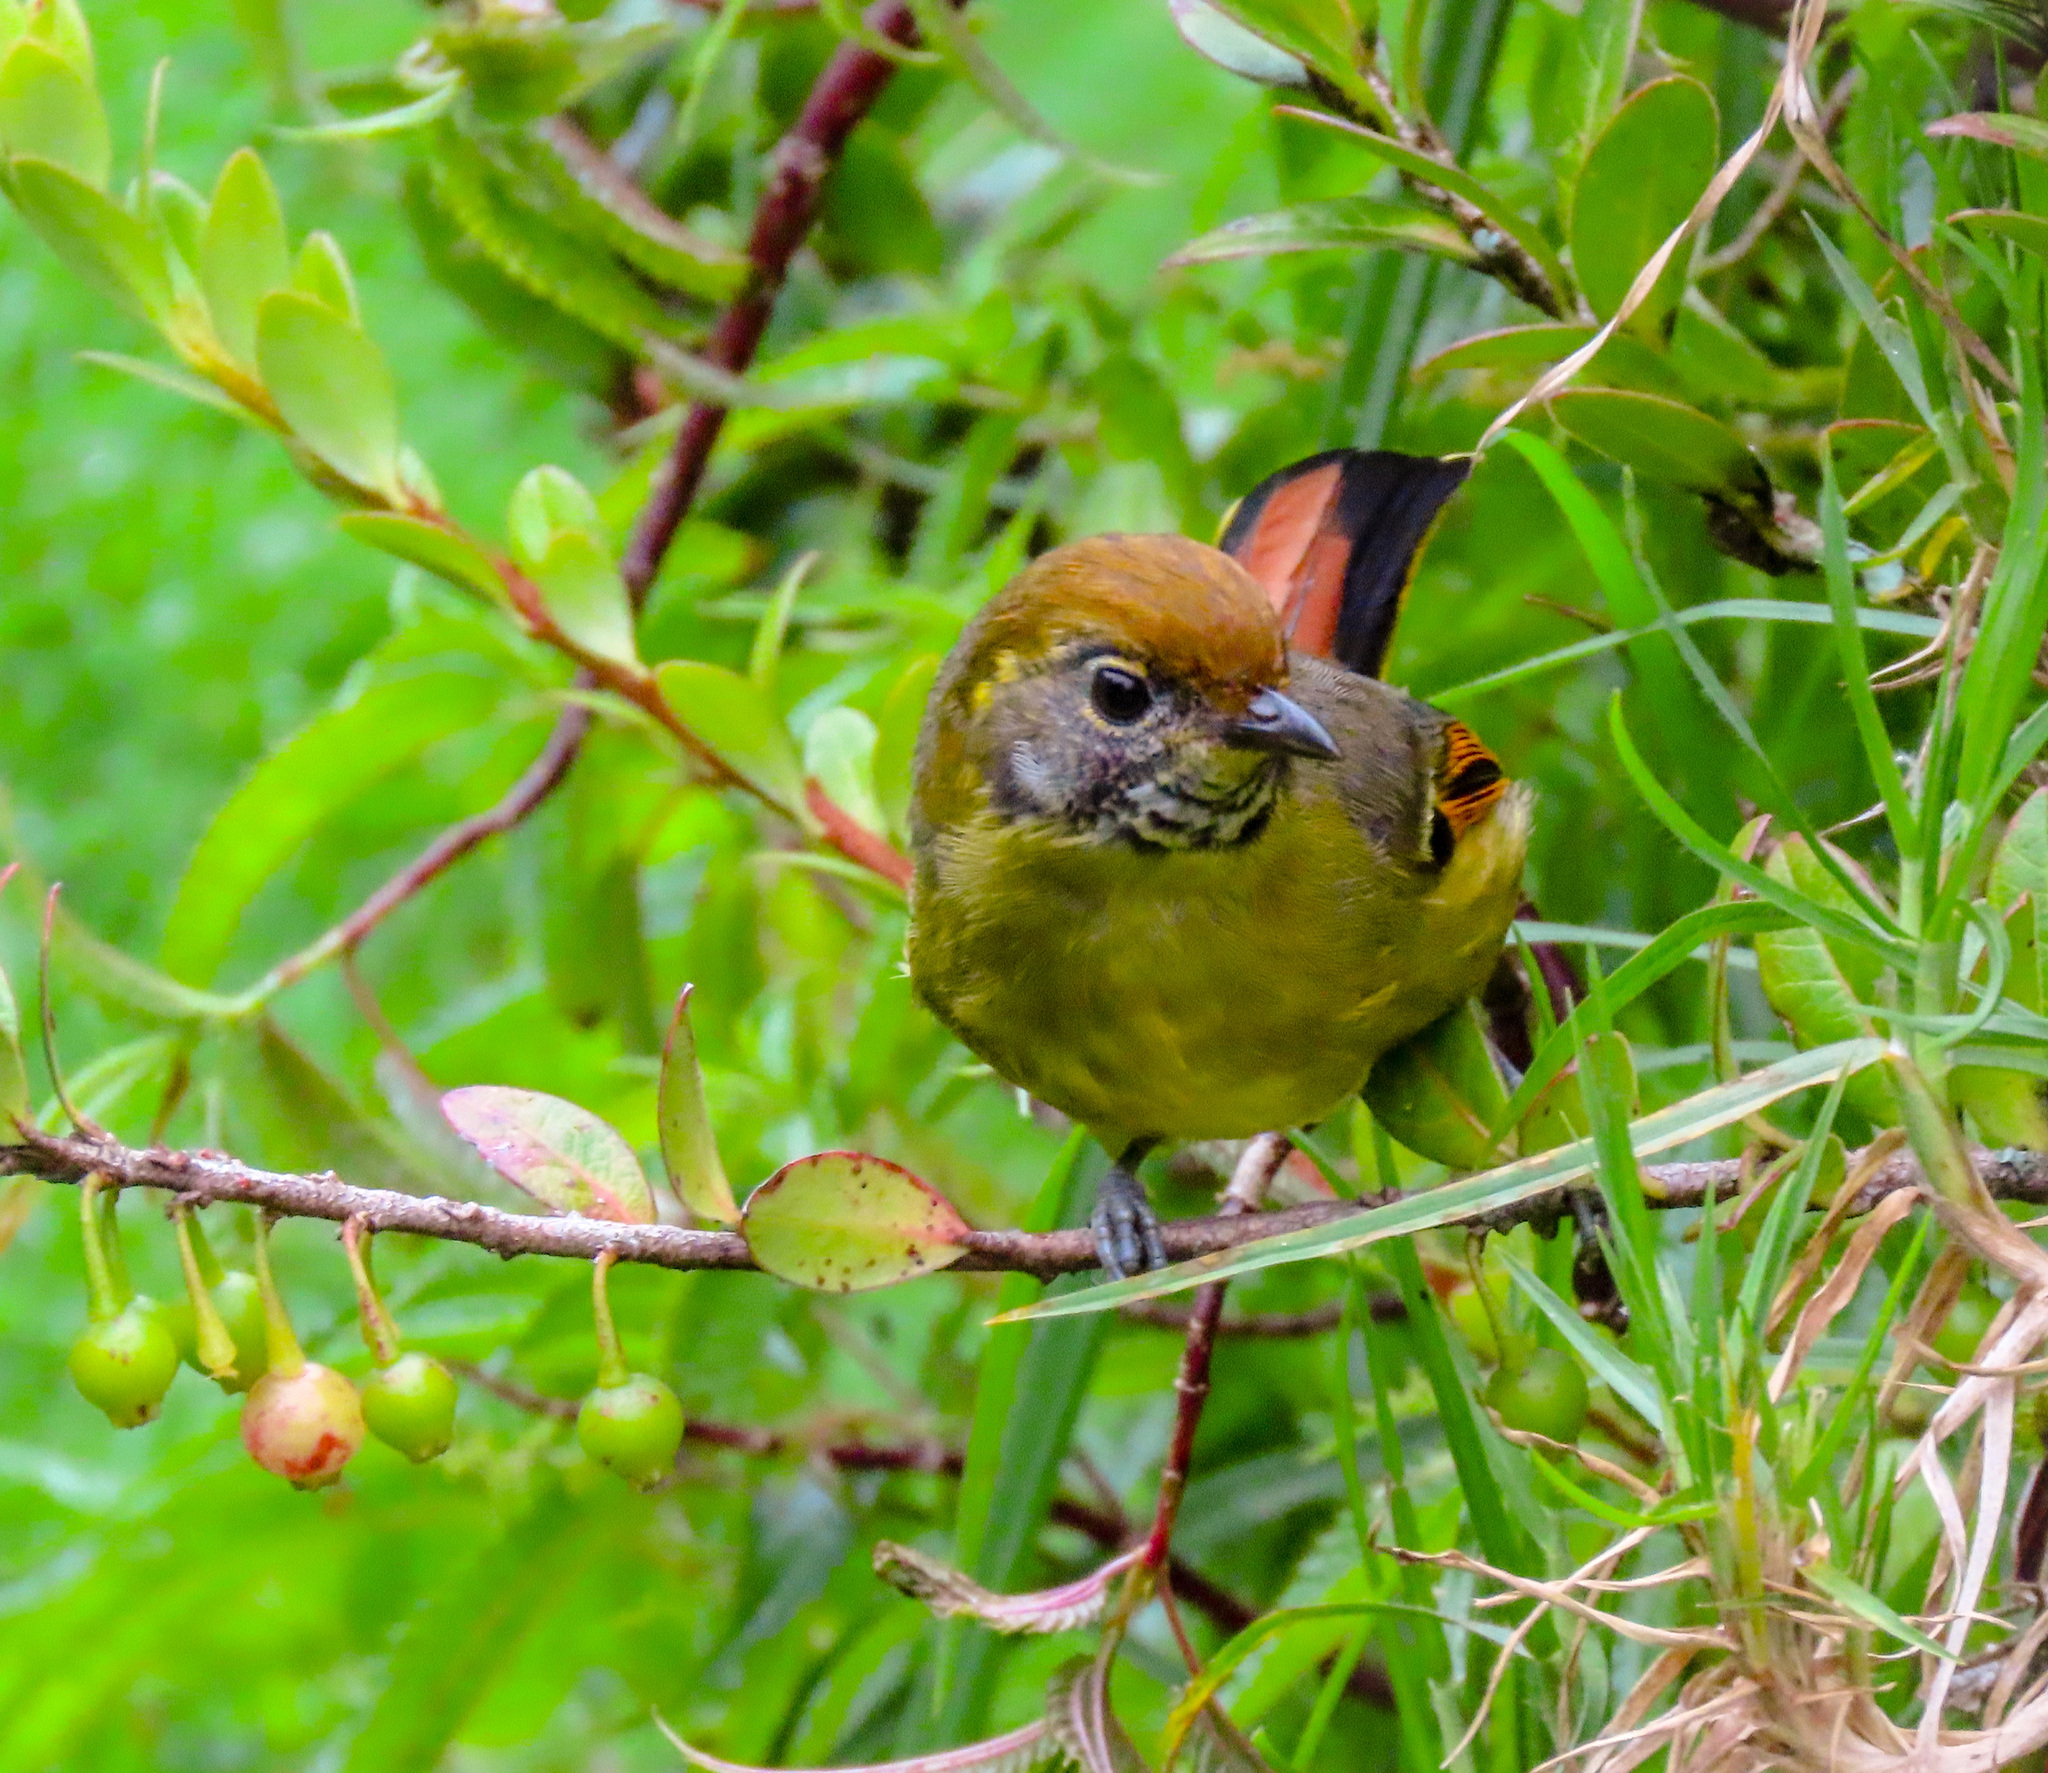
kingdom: Animalia
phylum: Chordata
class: Aves
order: Passeriformes
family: Leiothrichidae
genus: Minla
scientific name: Minla strigula
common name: Chestnut-tailed minla
